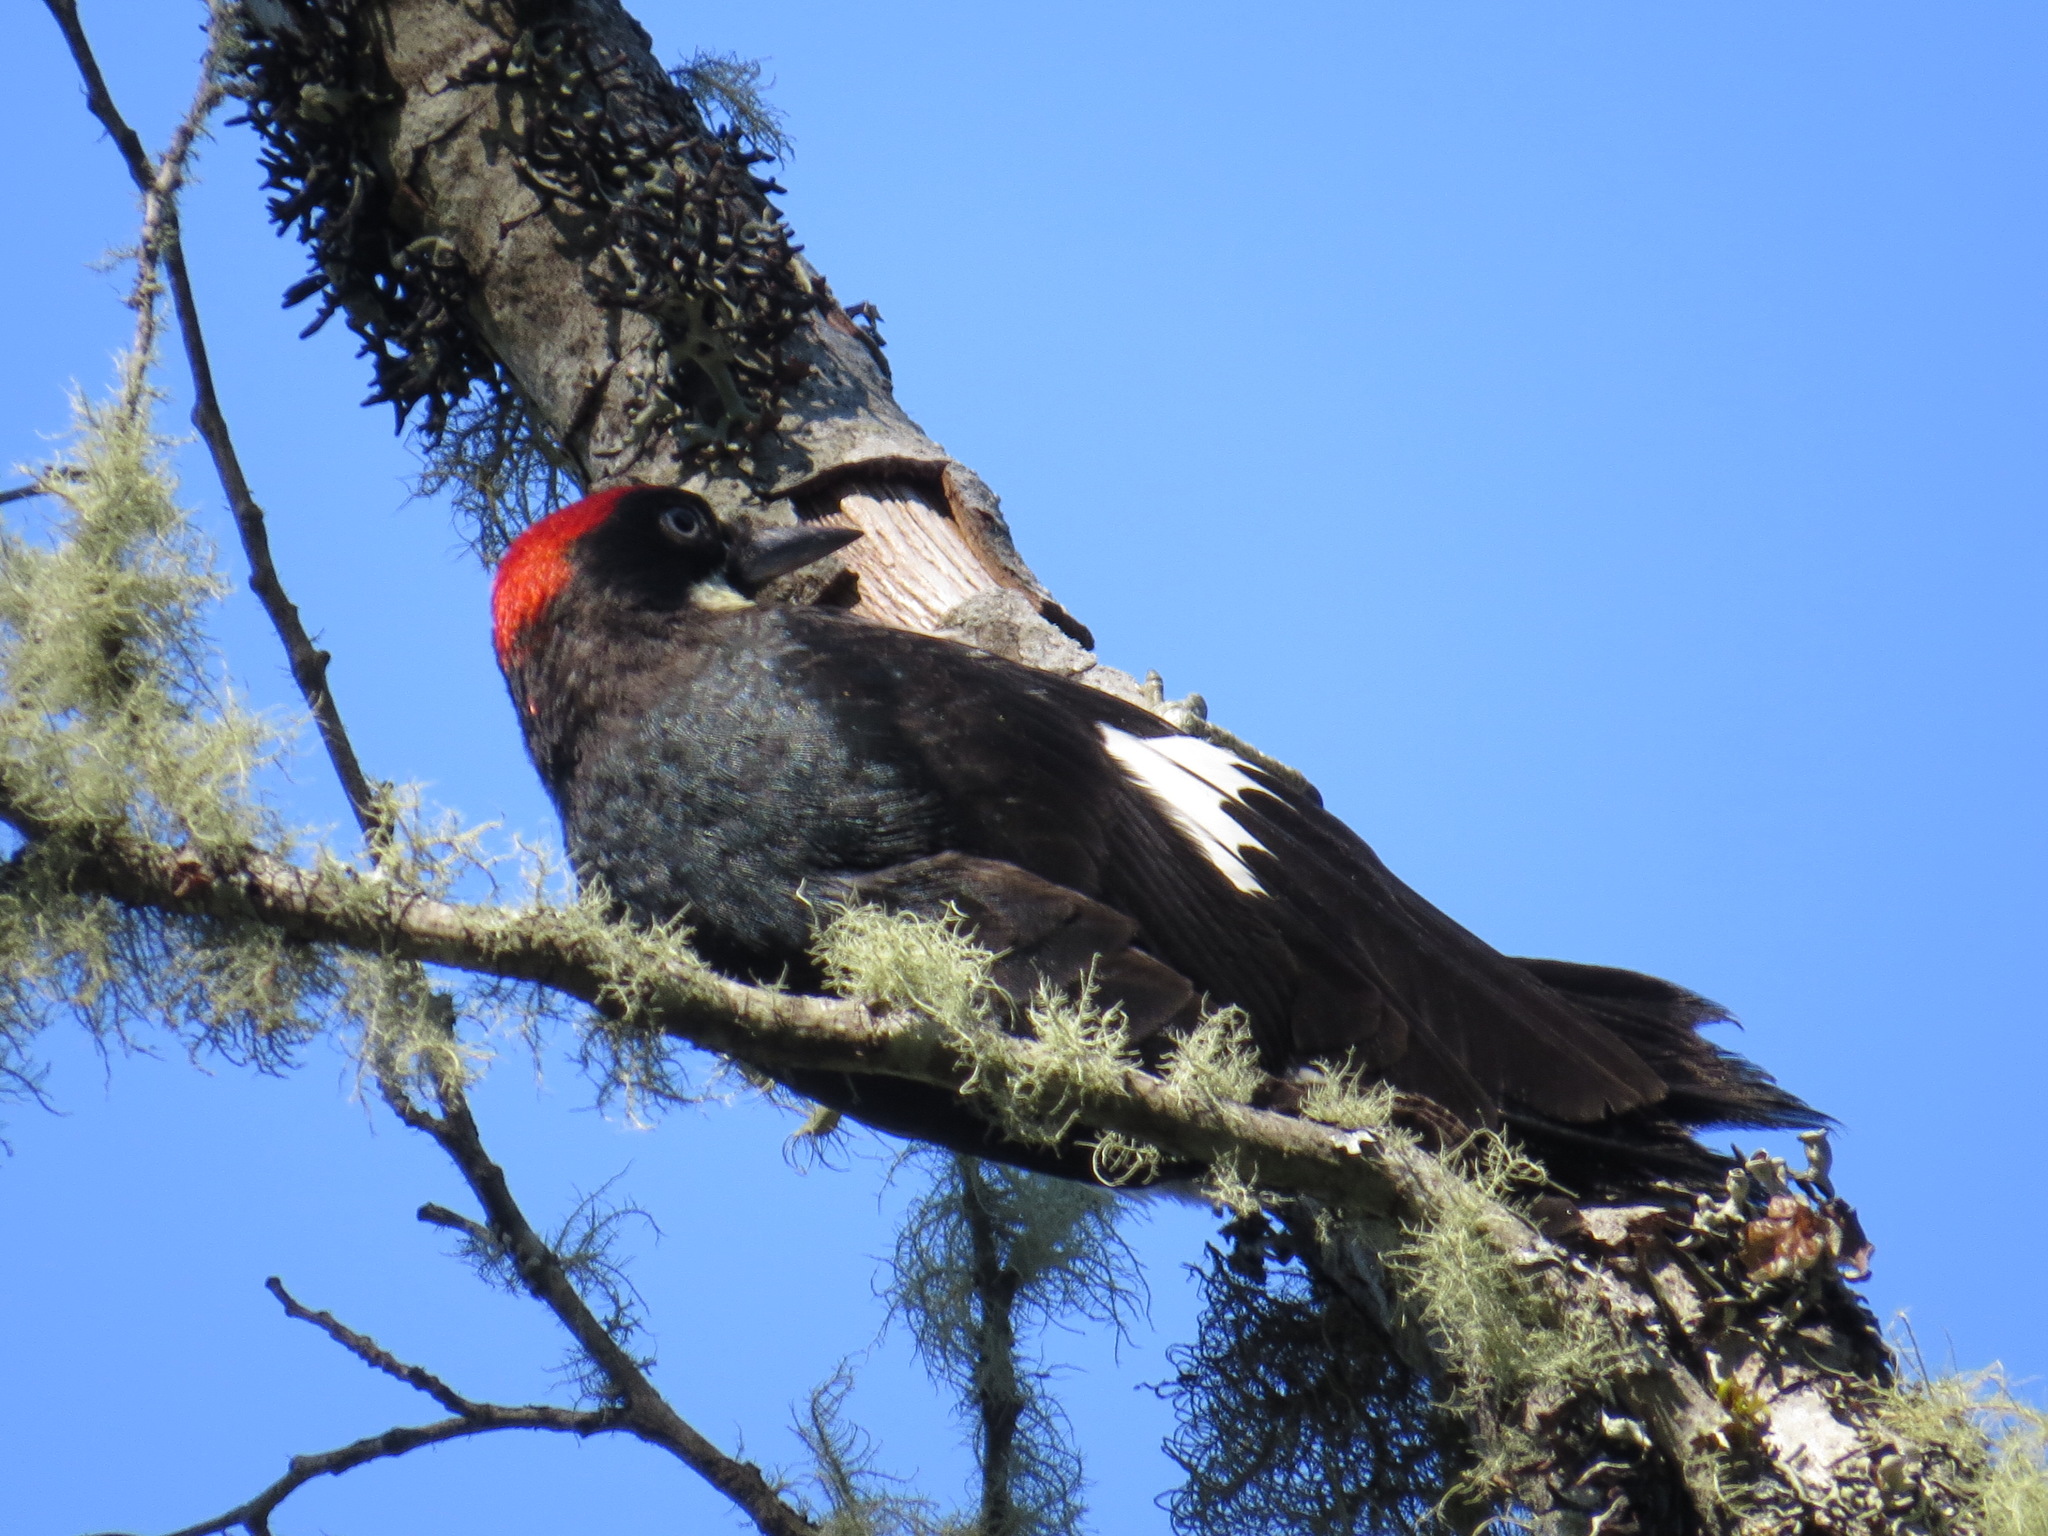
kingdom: Animalia
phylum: Chordata
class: Aves
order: Piciformes
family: Picidae
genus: Melanerpes
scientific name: Melanerpes formicivorus
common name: Acorn woodpecker
